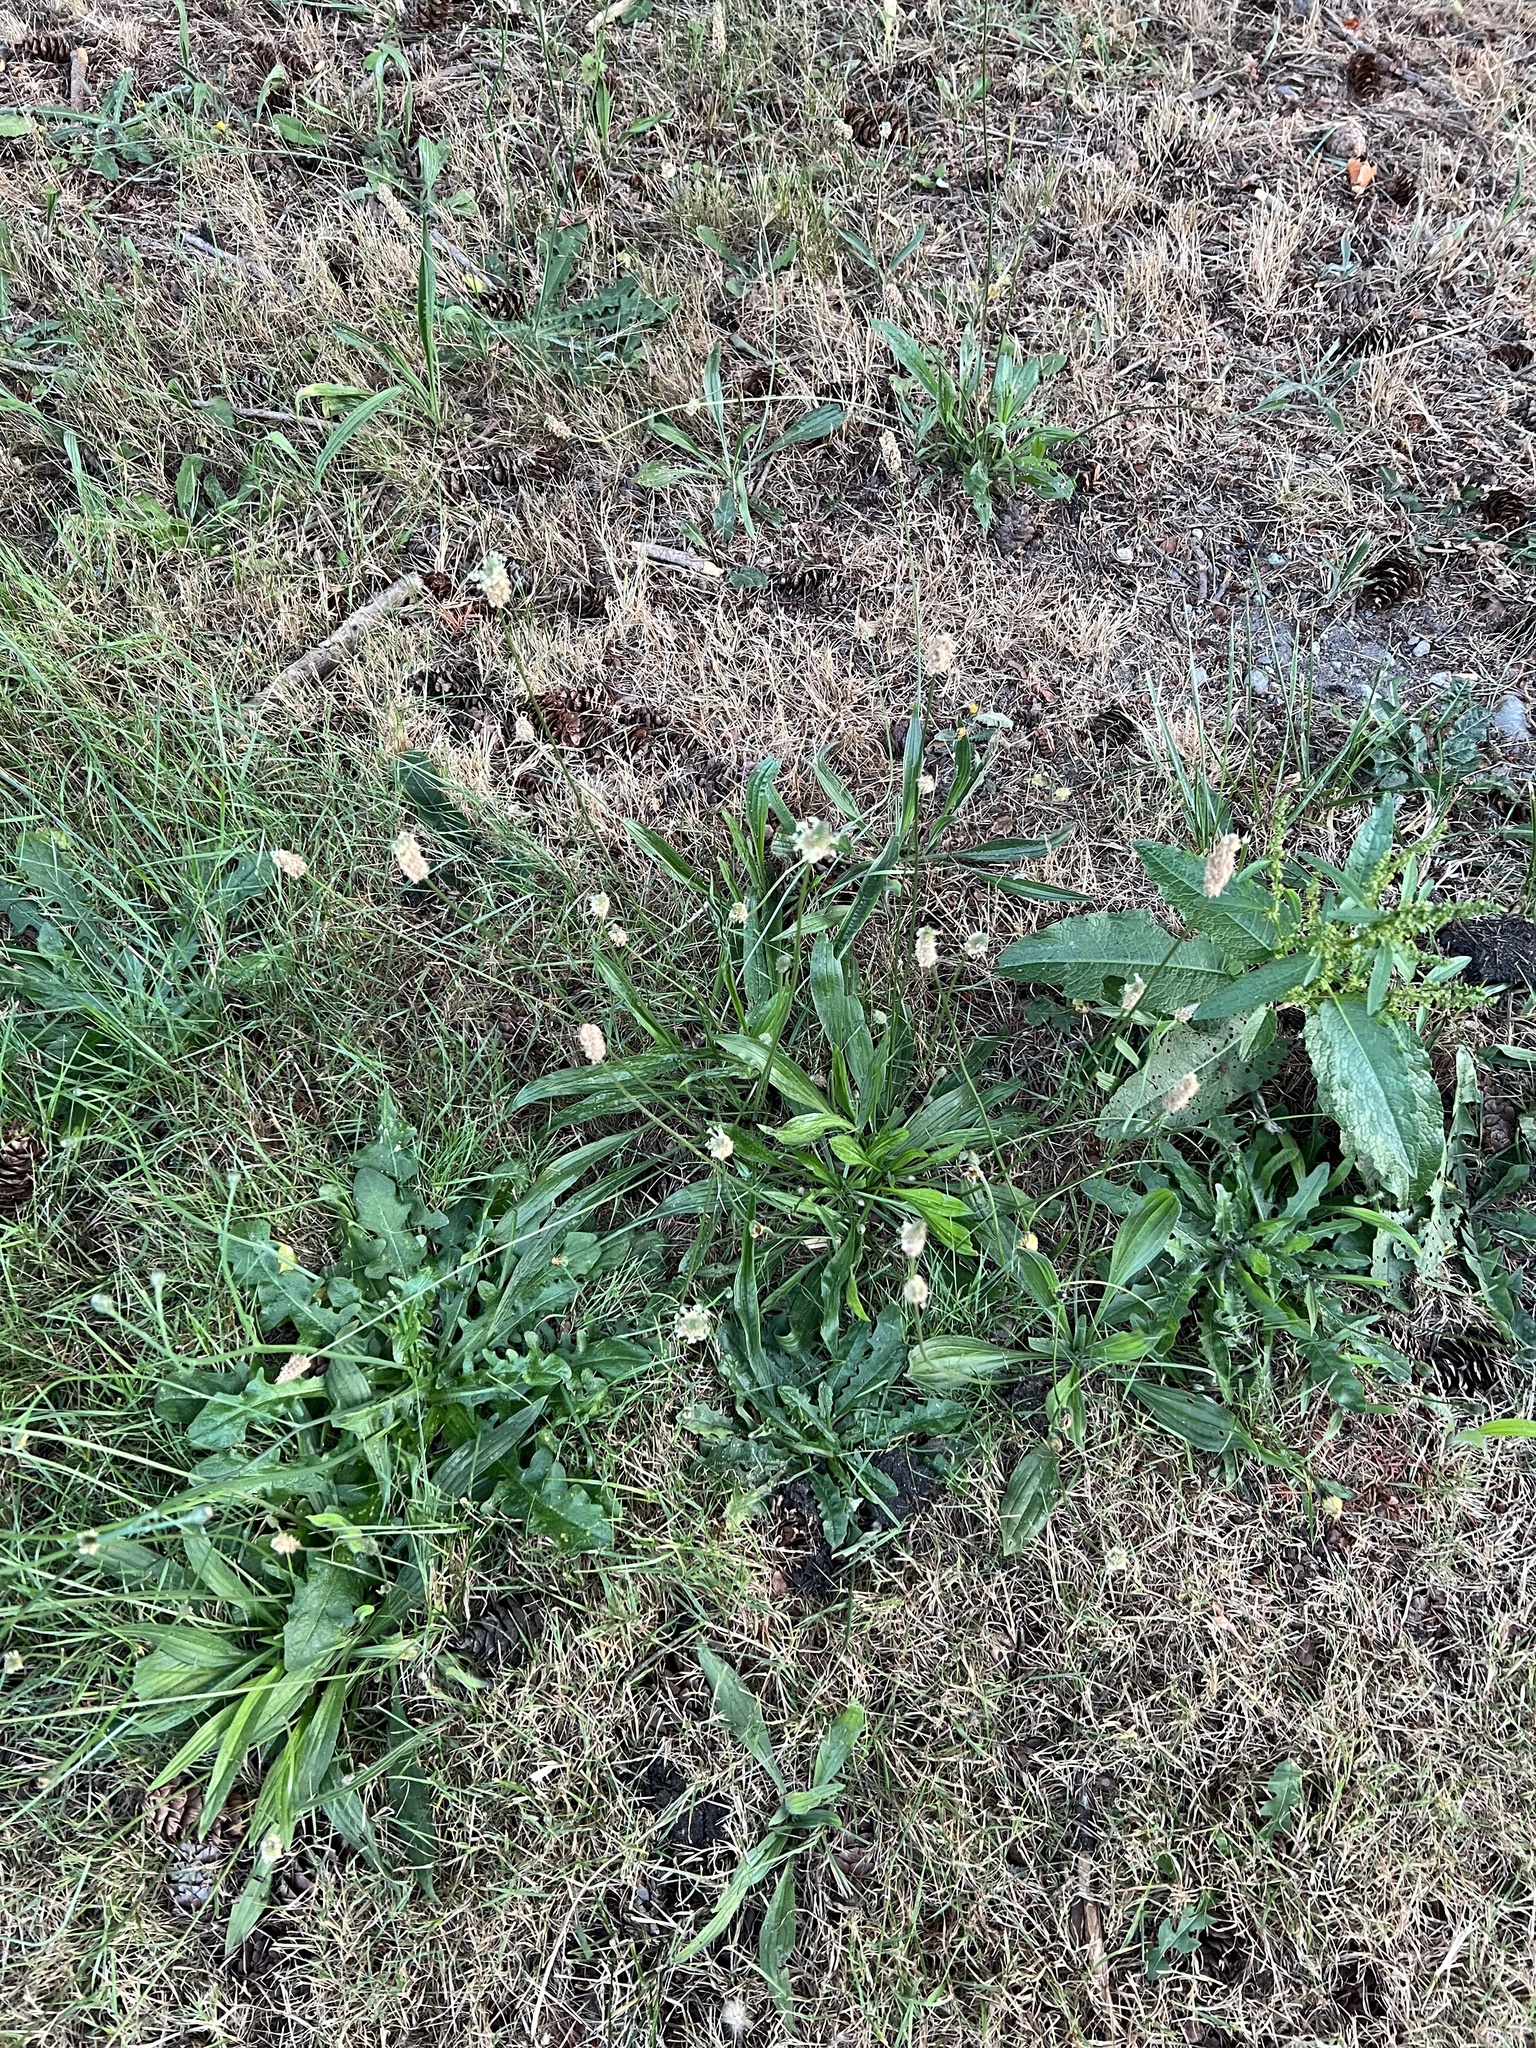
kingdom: Plantae
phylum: Tracheophyta
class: Magnoliopsida
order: Ericales
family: Ericaceae
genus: Gaultheria
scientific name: Gaultheria shallon
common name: Shallon
